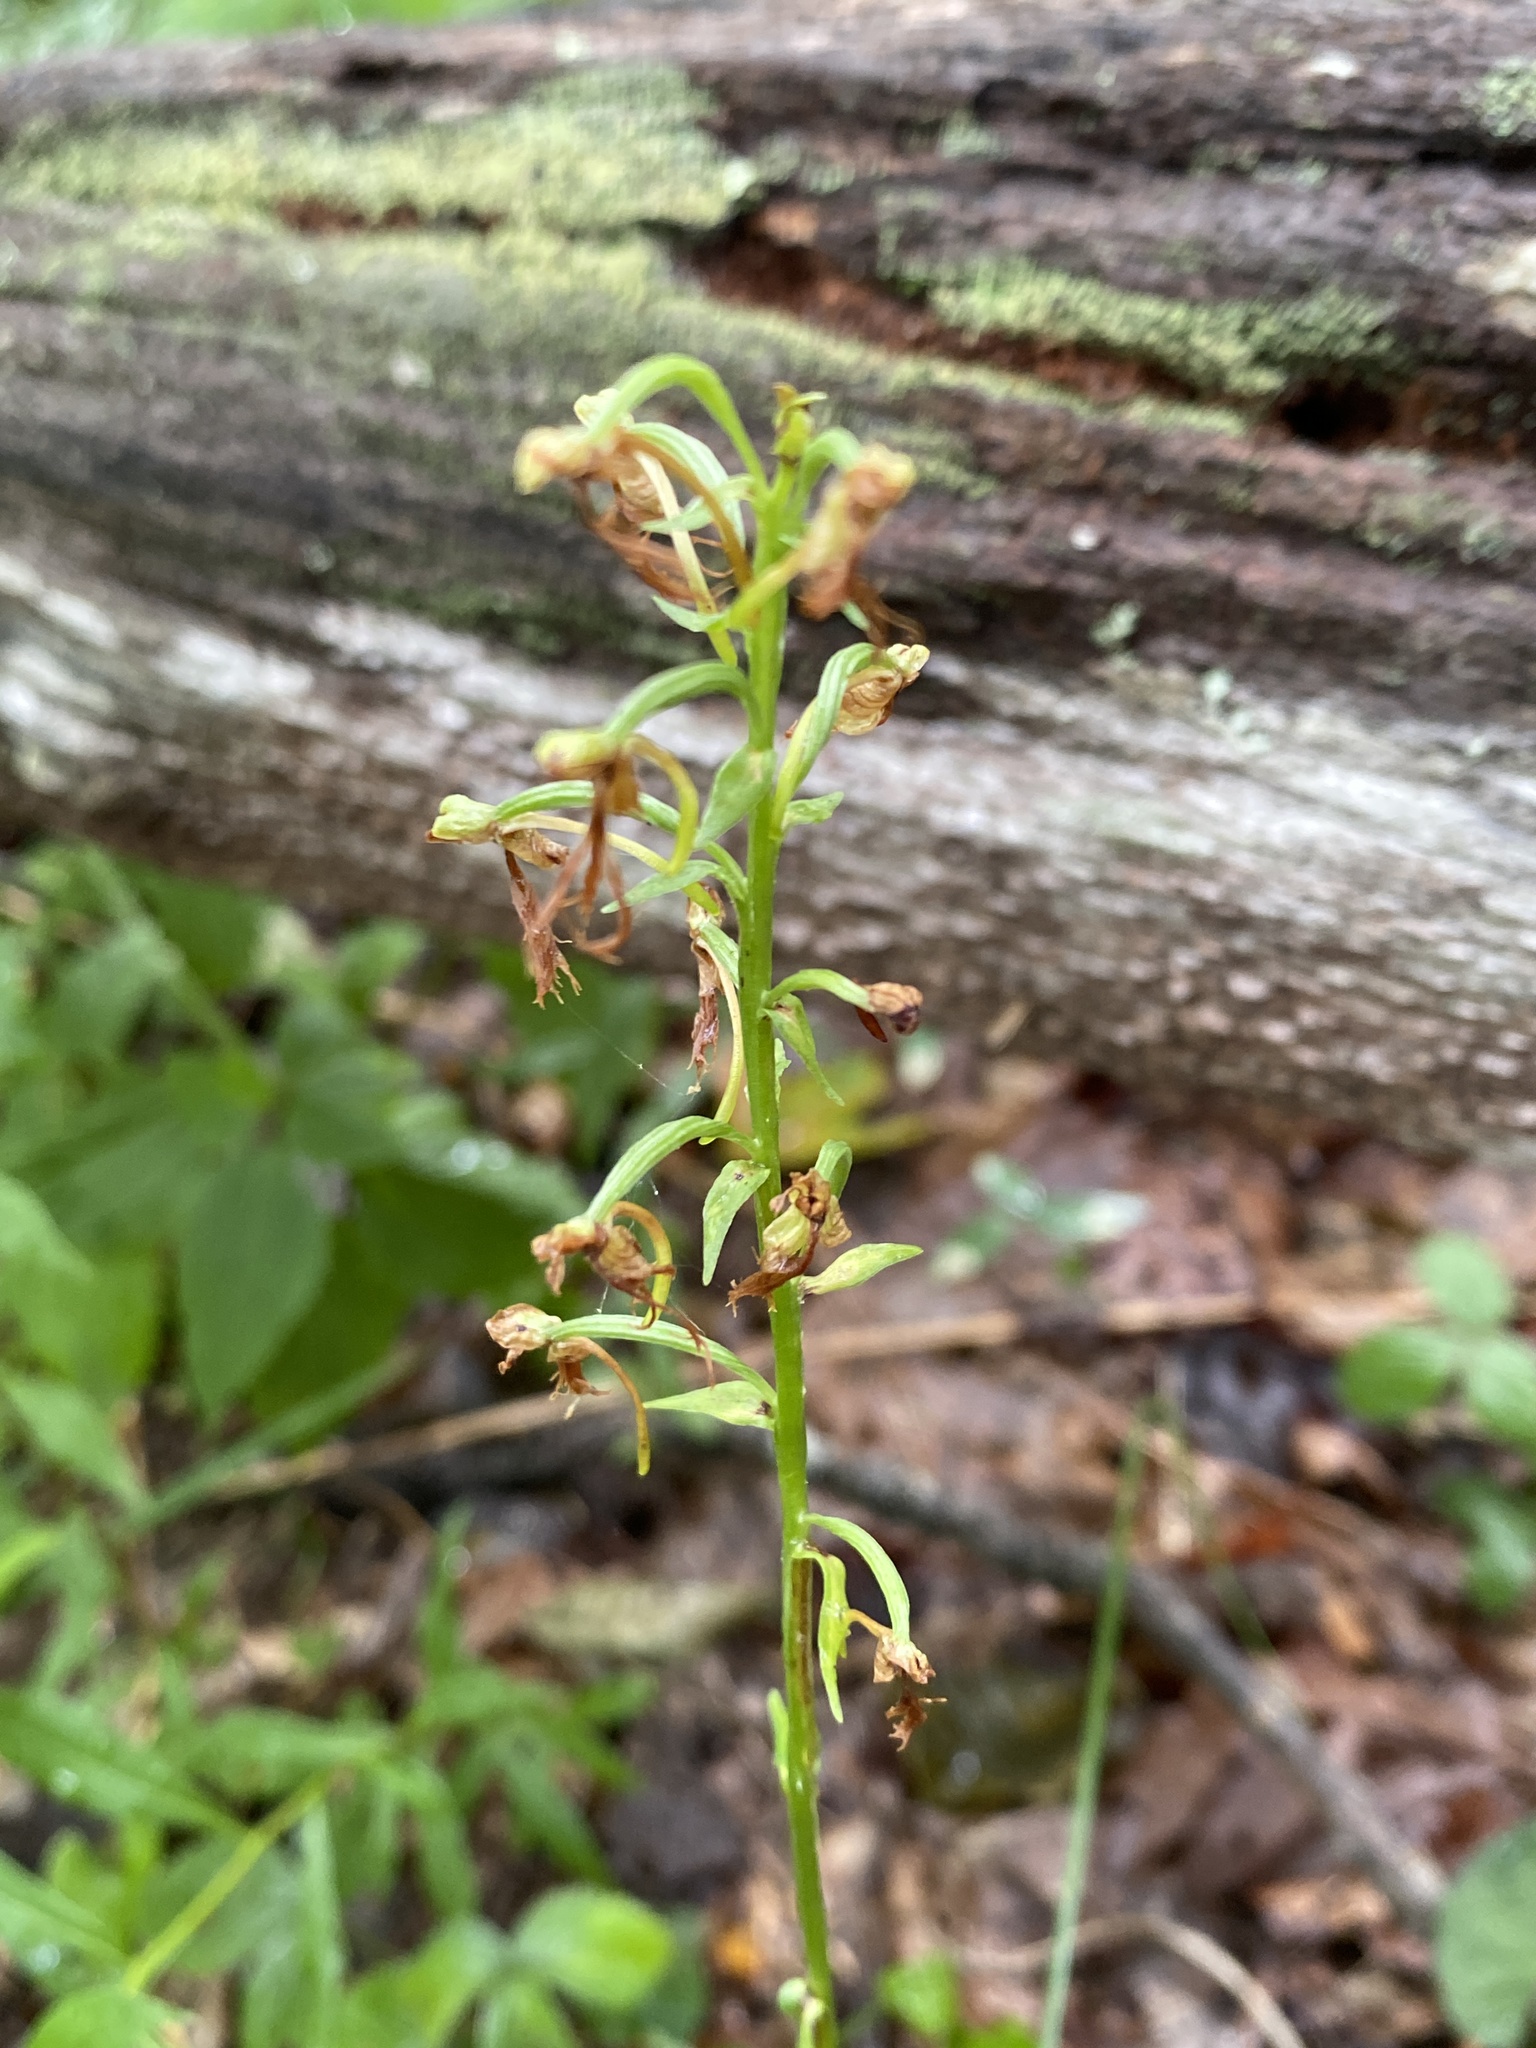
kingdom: Plantae
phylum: Tracheophyta
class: Liliopsida
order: Asparagales
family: Orchidaceae
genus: Platanthera
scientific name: Platanthera lacera
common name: Green fringed orchid
